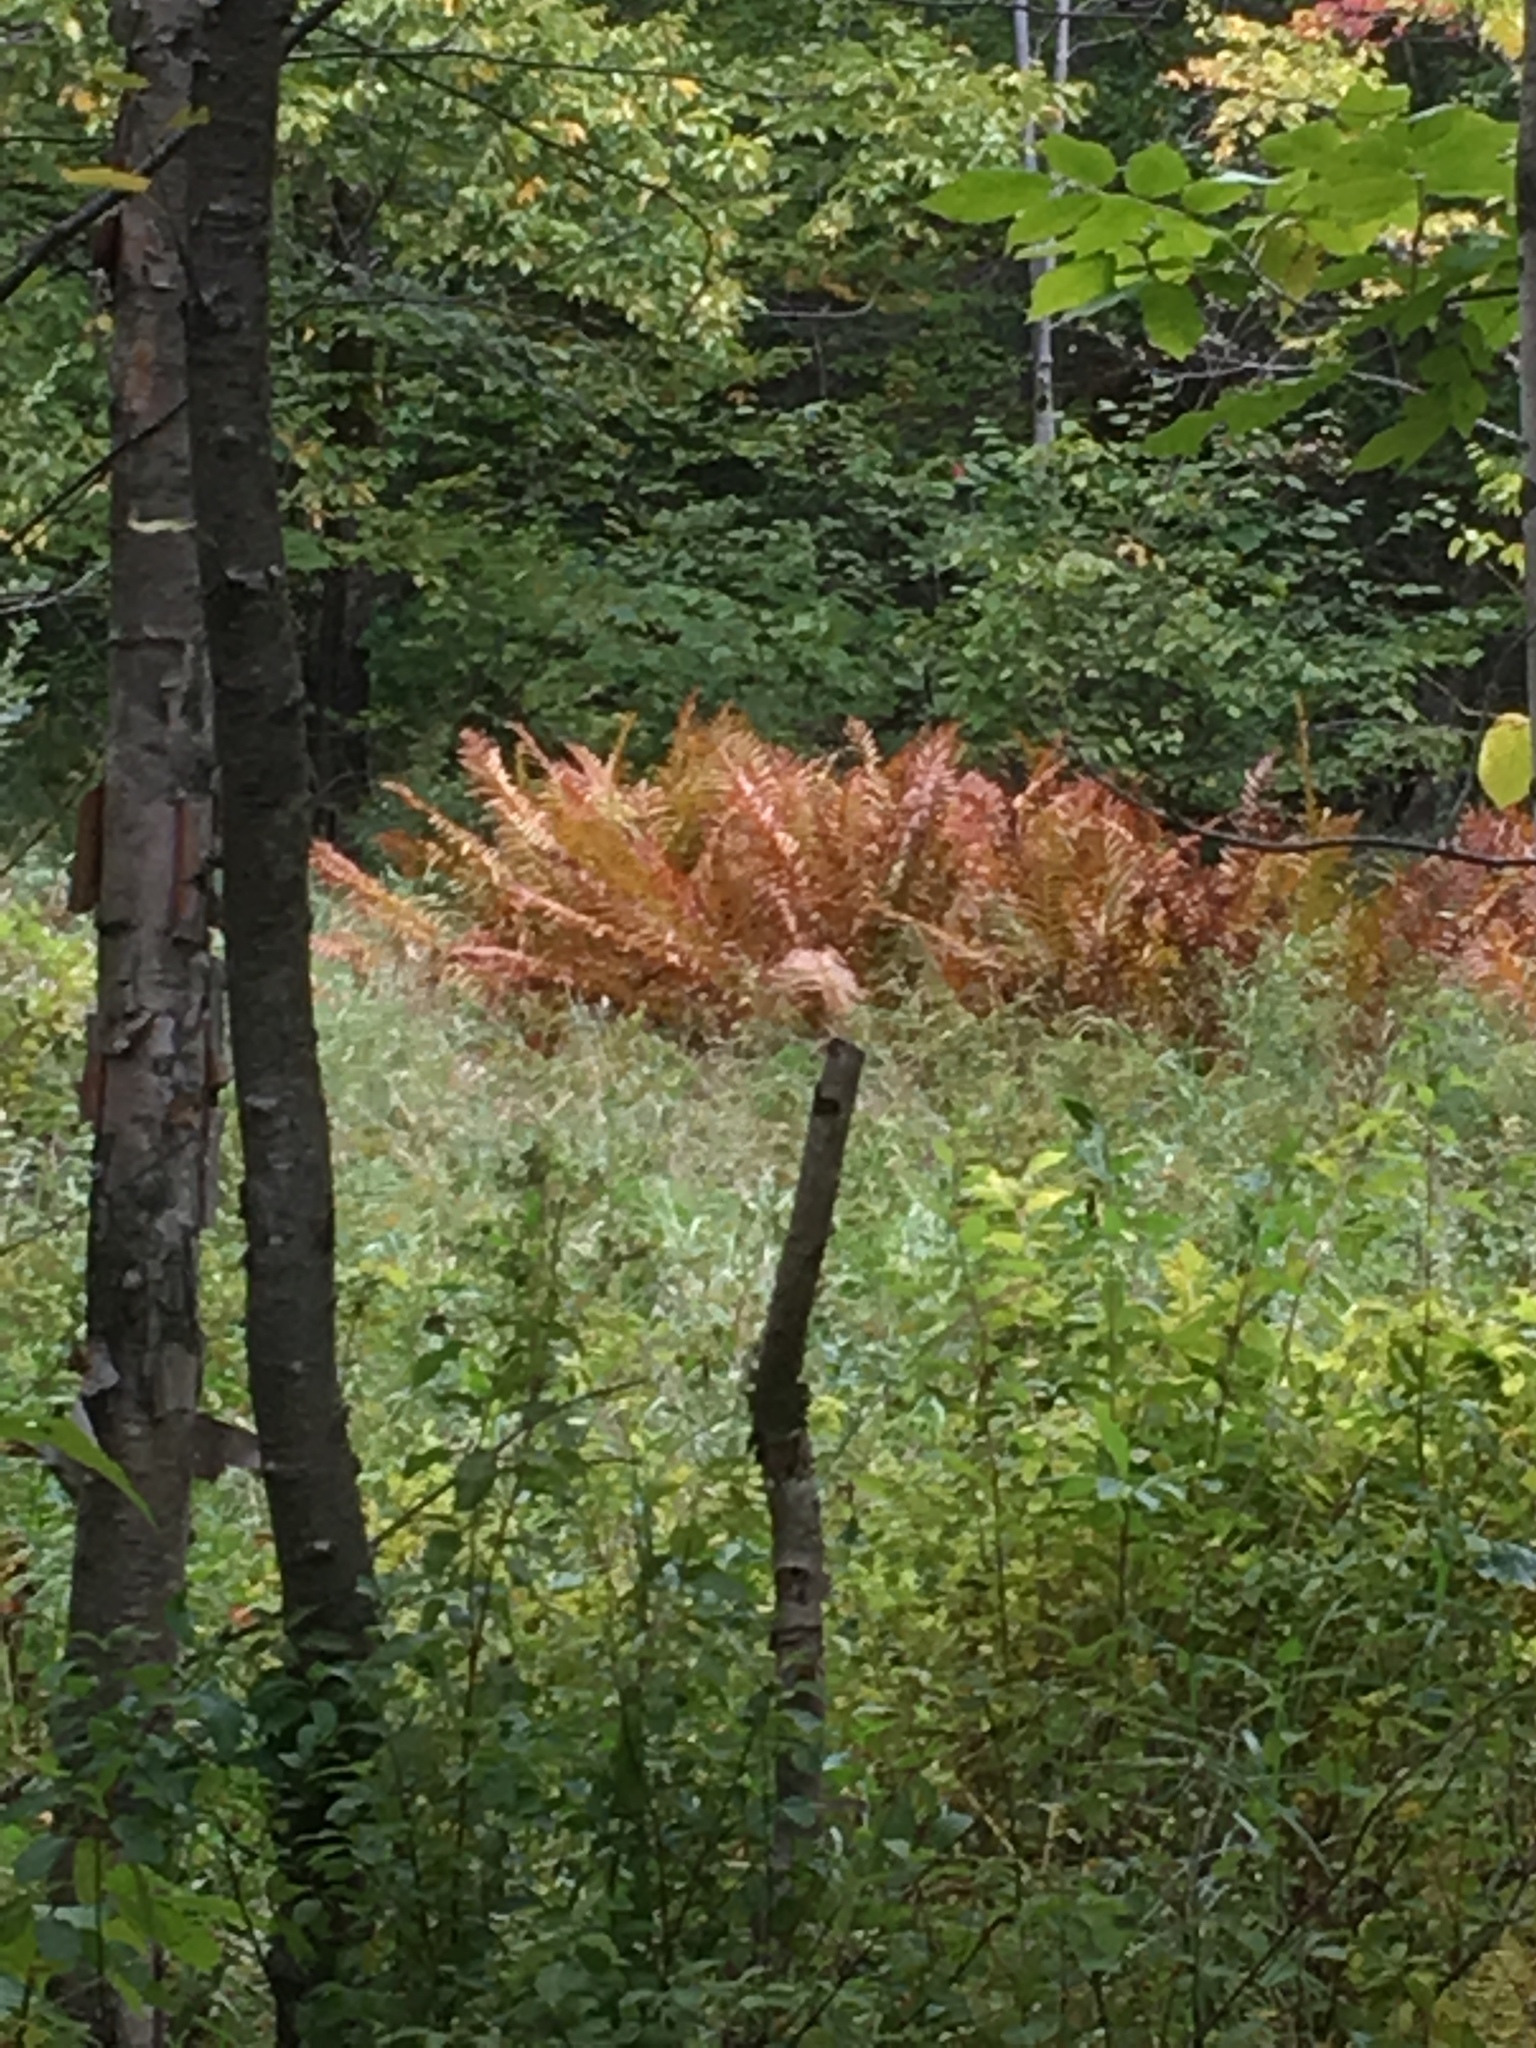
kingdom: Plantae
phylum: Tracheophyta
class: Polypodiopsida
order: Osmundales
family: Osmundaceae
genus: Osmundastrum
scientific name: Osmundastrum cinnamomeum
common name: Cinnamon fern
